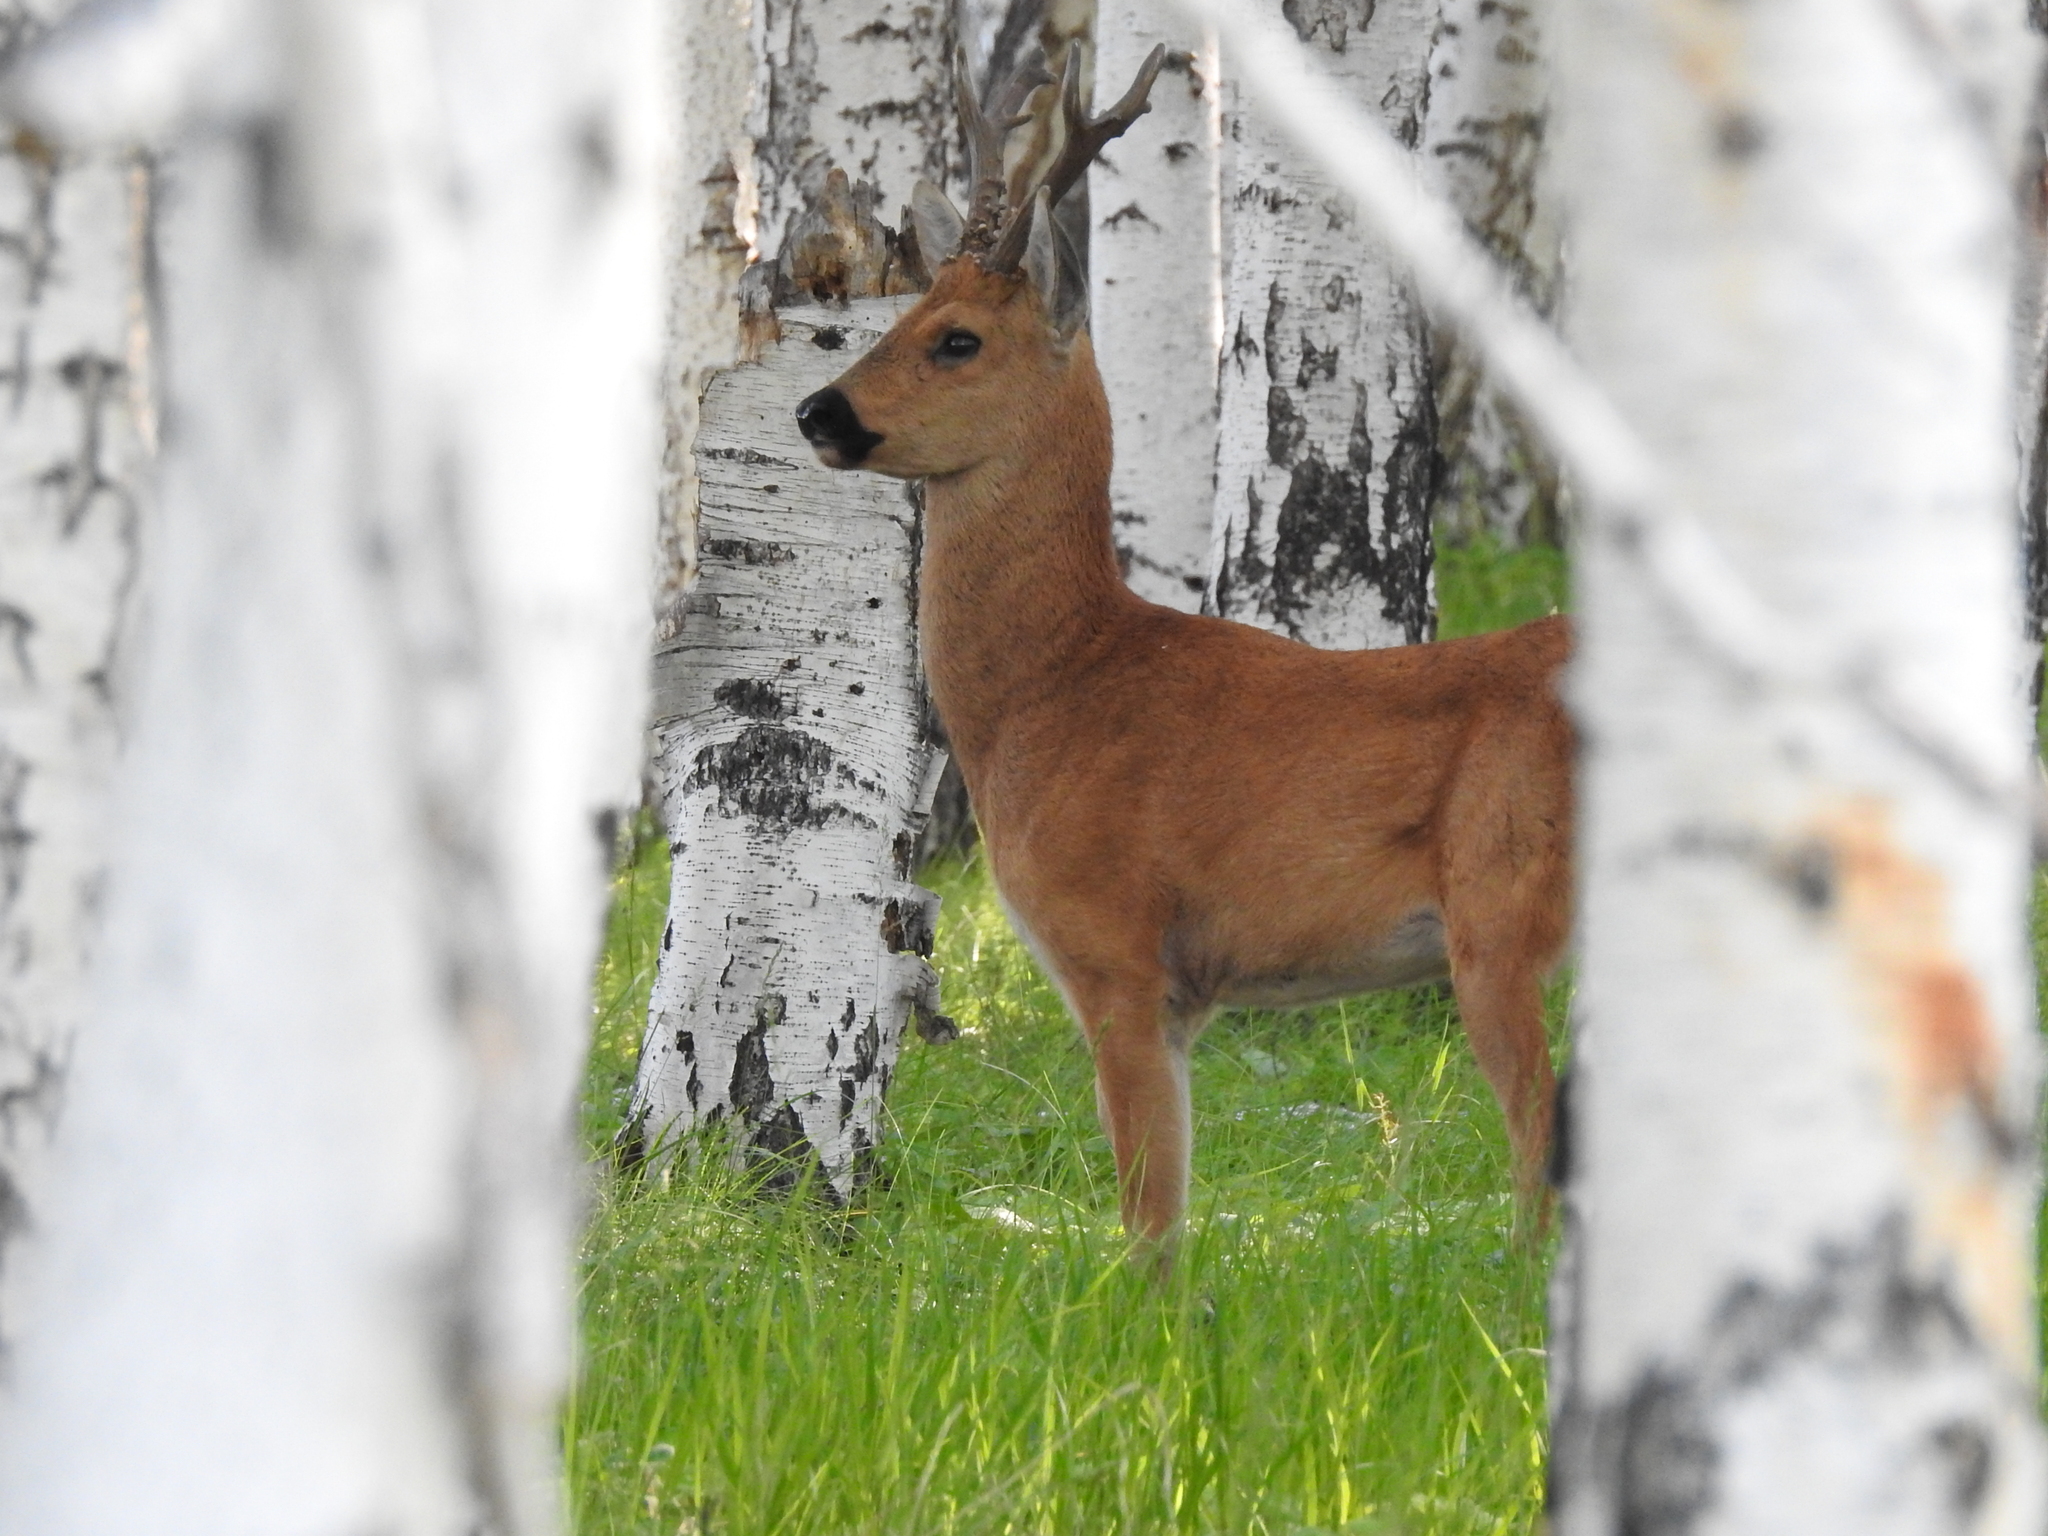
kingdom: Animalia
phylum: Chordata
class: Mammalia
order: Artiodactyla
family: Cervidae
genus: Capreolus
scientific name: Capreolus pygargus
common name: Siberian roe
